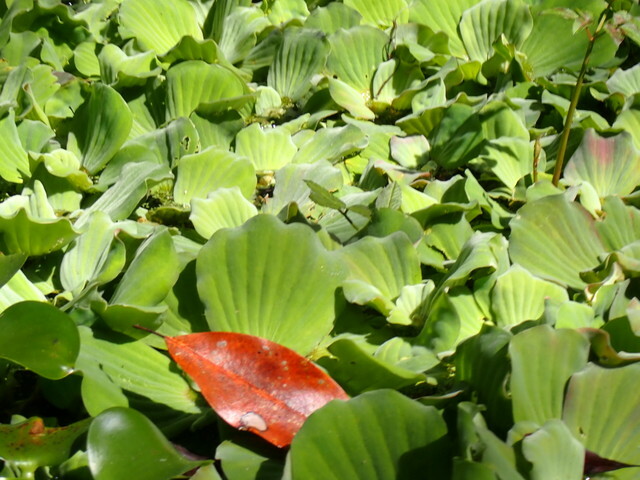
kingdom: Plantae
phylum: Tracheophyta
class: Liliopsida
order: Alismatales
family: Araceae
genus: Pistia
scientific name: Pistia stratiotes
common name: Water lettuce
